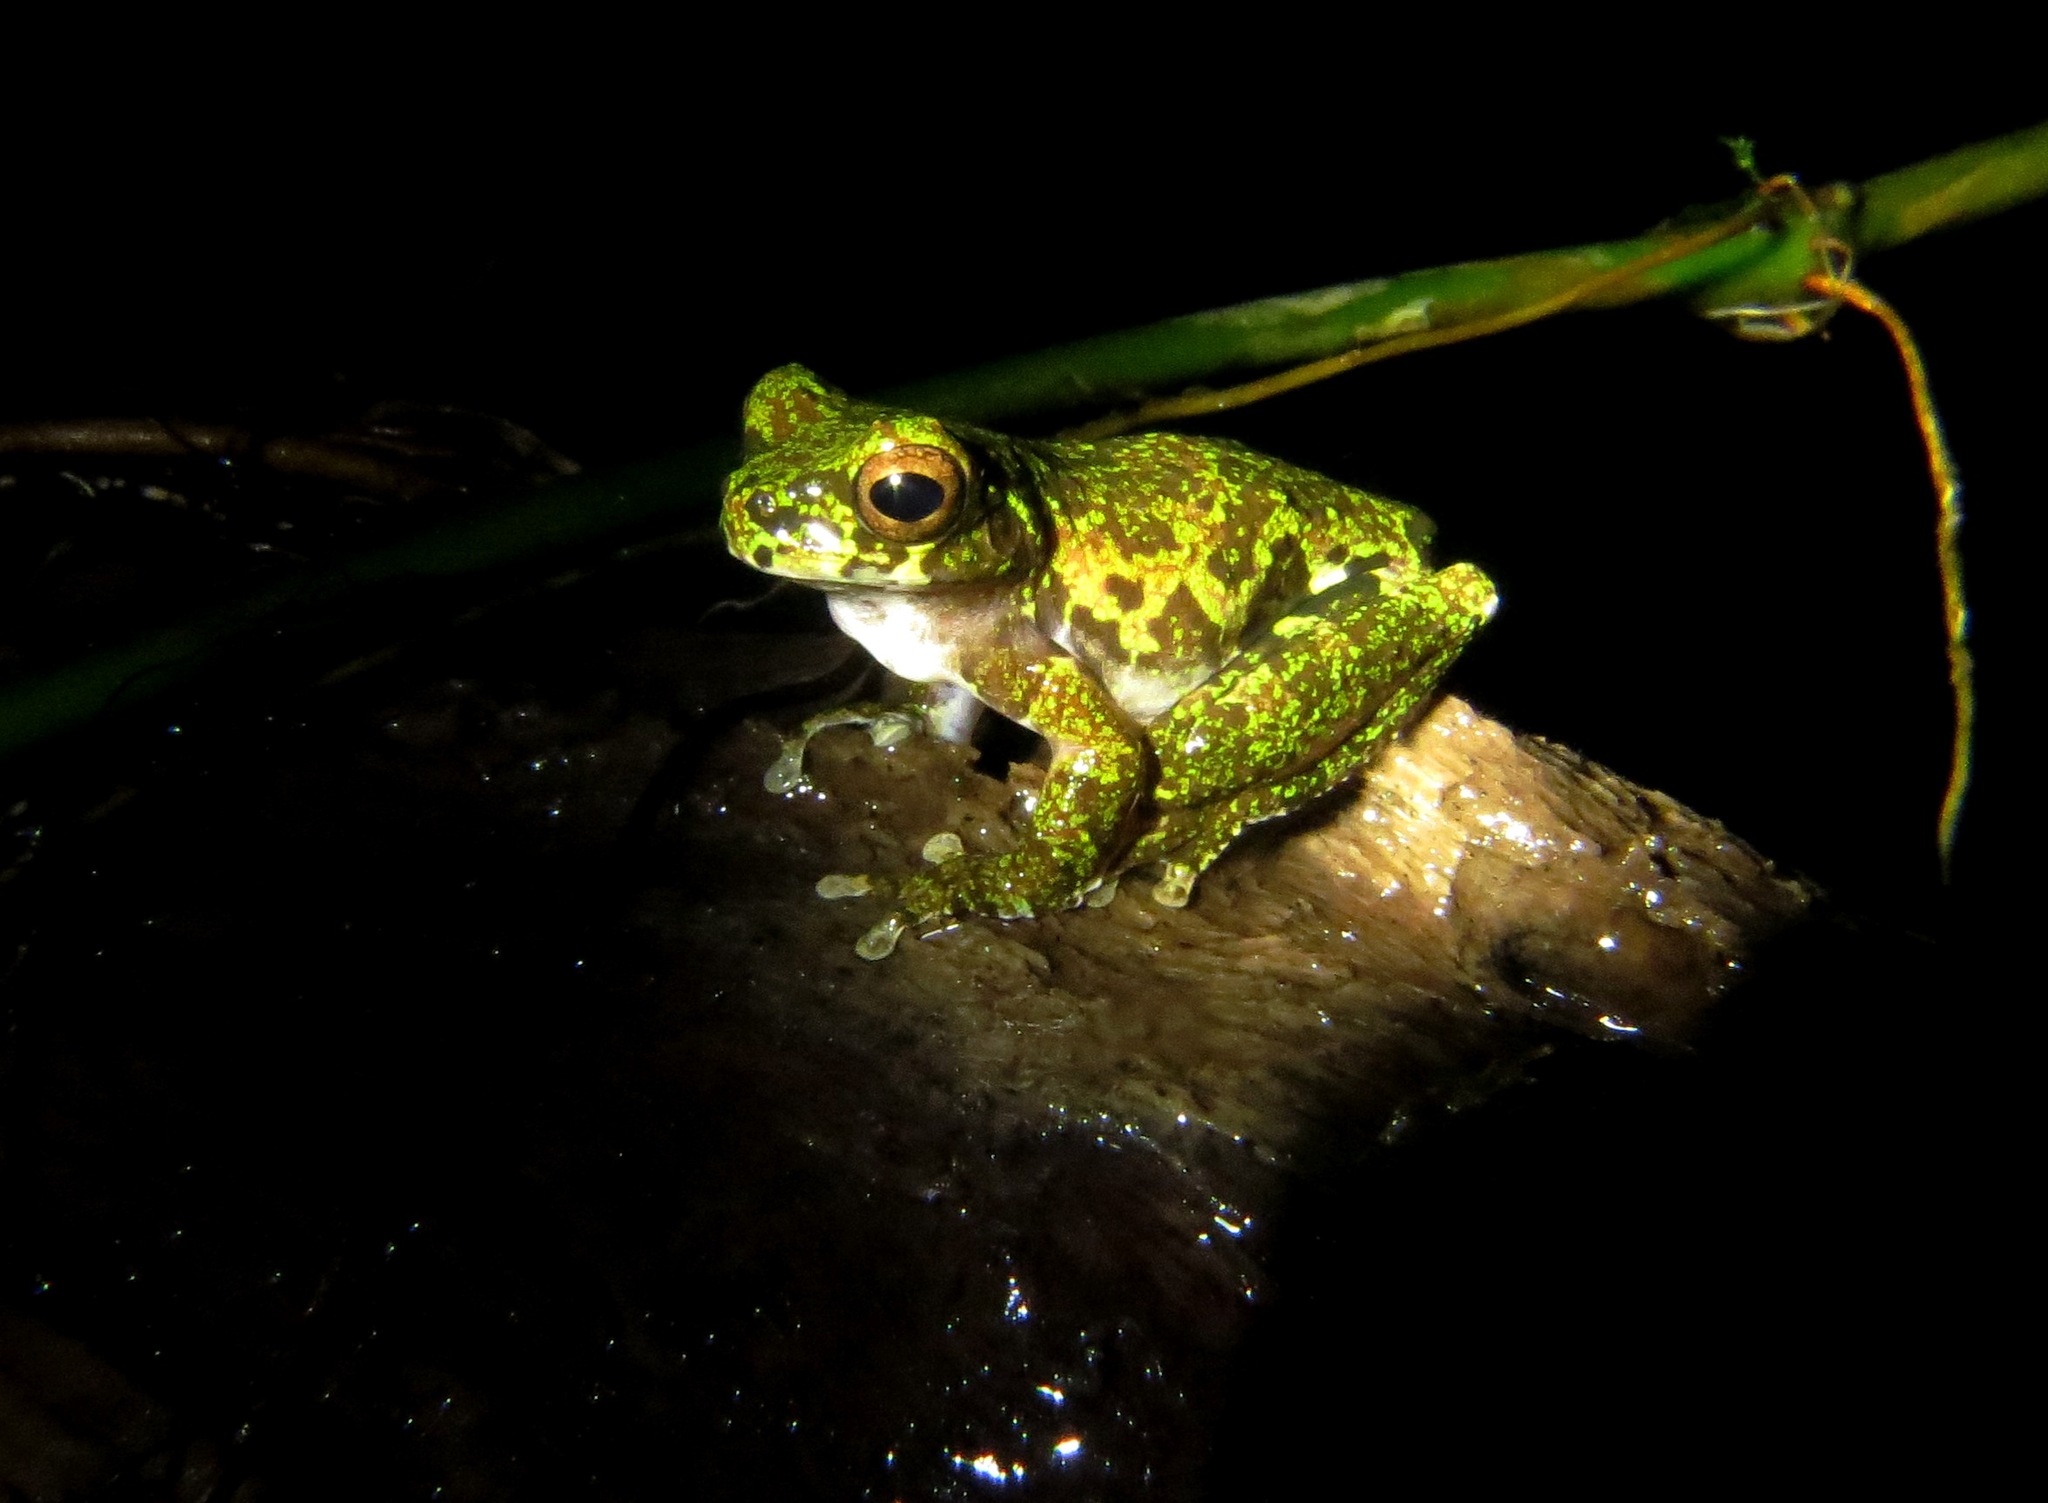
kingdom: Animalia
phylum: Chordata
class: Amphibia
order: Anura
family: Hylidae
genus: Isthmohyla
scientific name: Isthmohyla lancasteri
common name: Lancaster's treefrog
